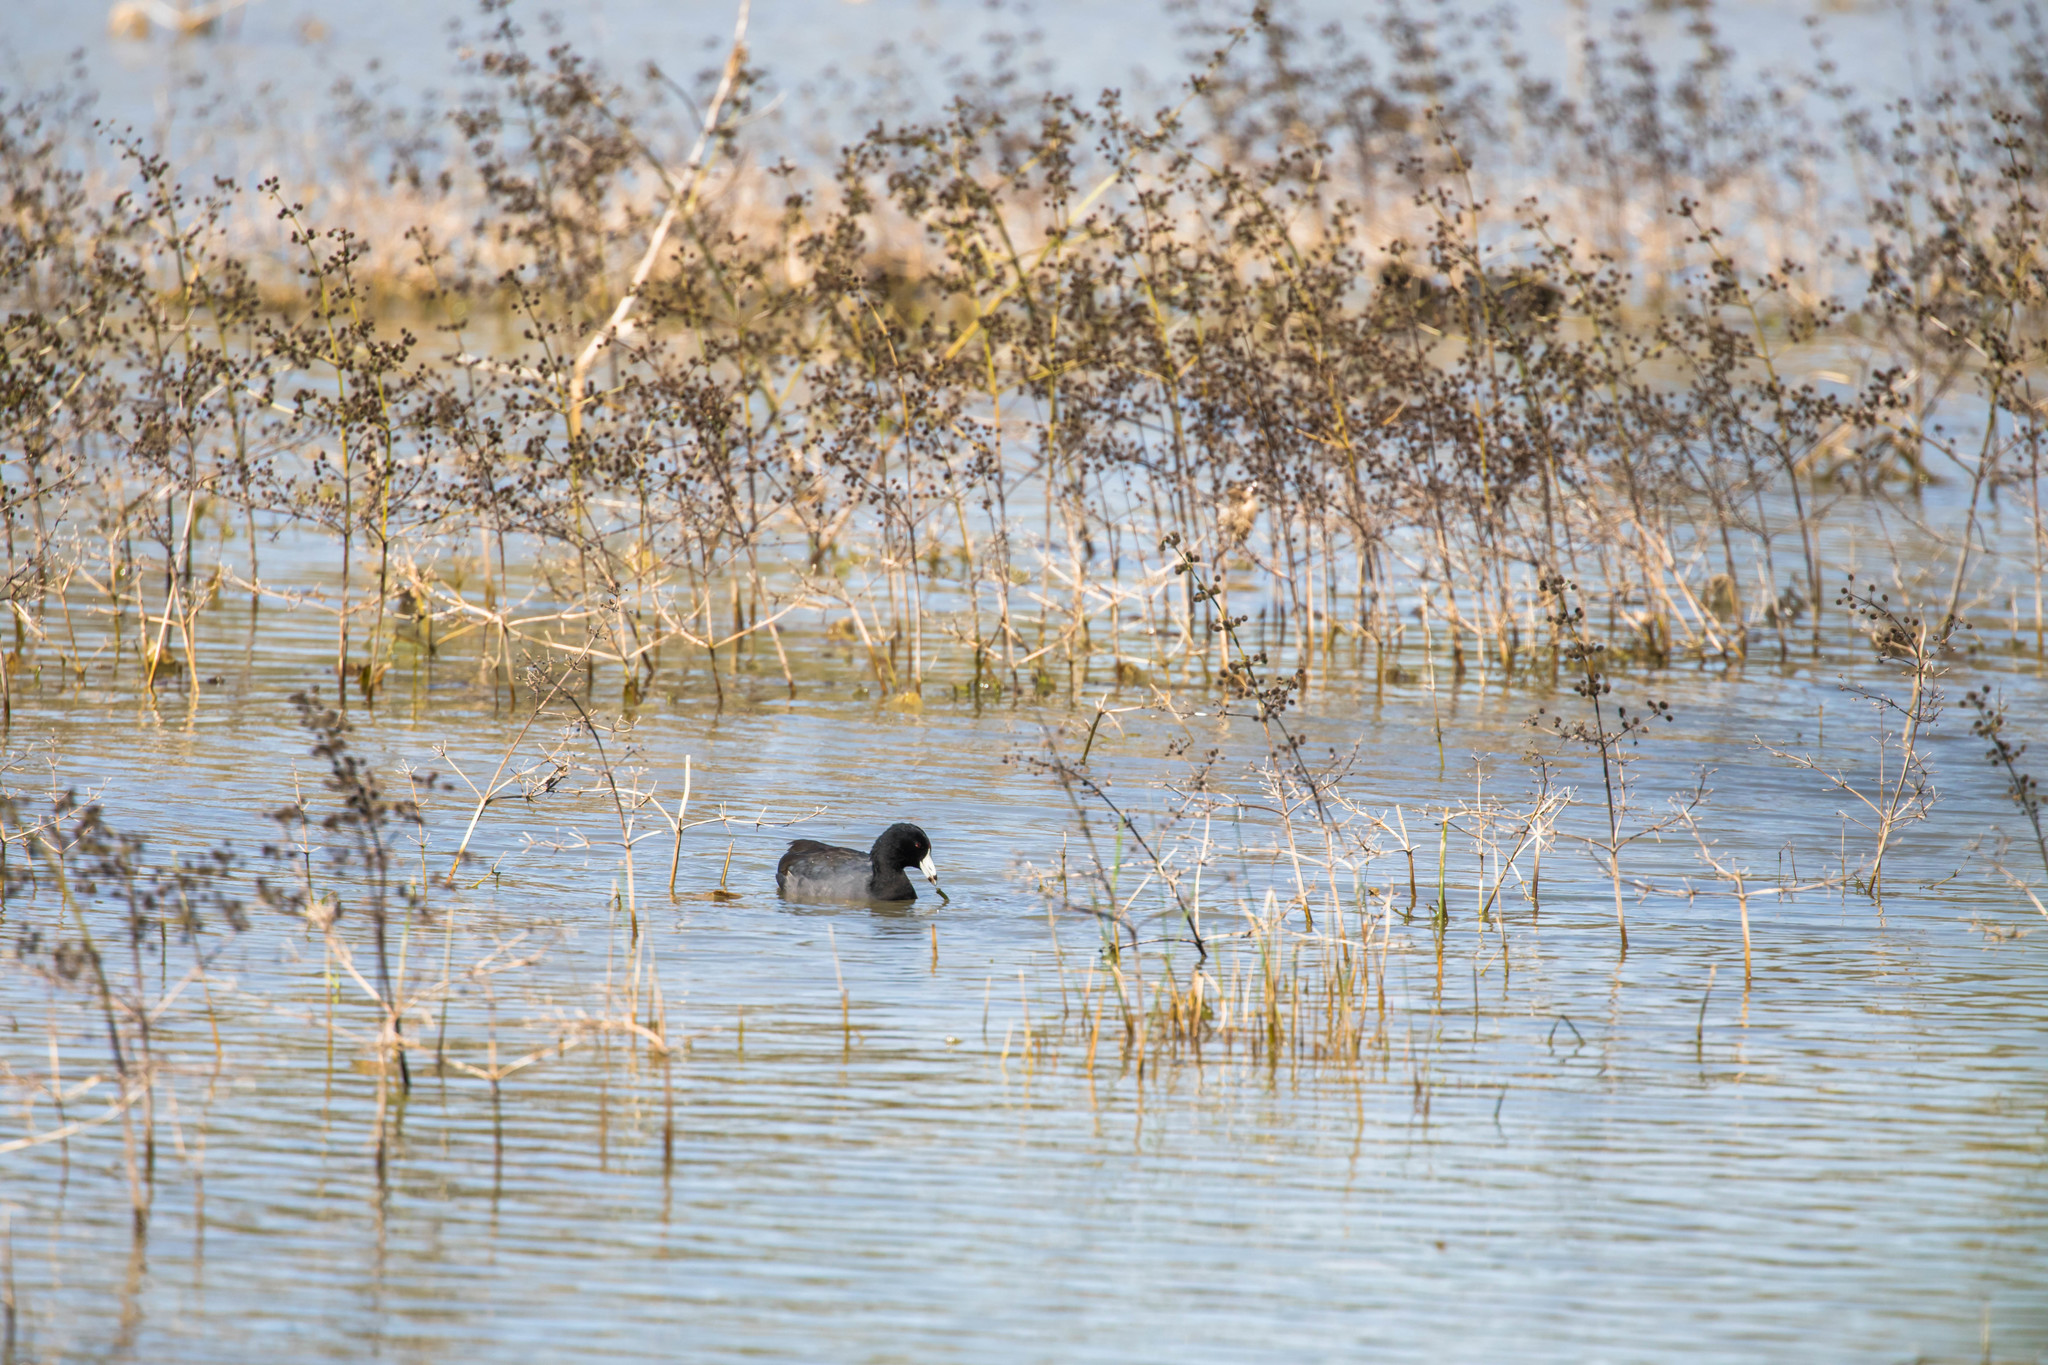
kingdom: Animalia
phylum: Chordata
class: Aves
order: Gruiformes
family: Rallidae
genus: Fulica
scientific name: Fulica americana
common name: American coot
